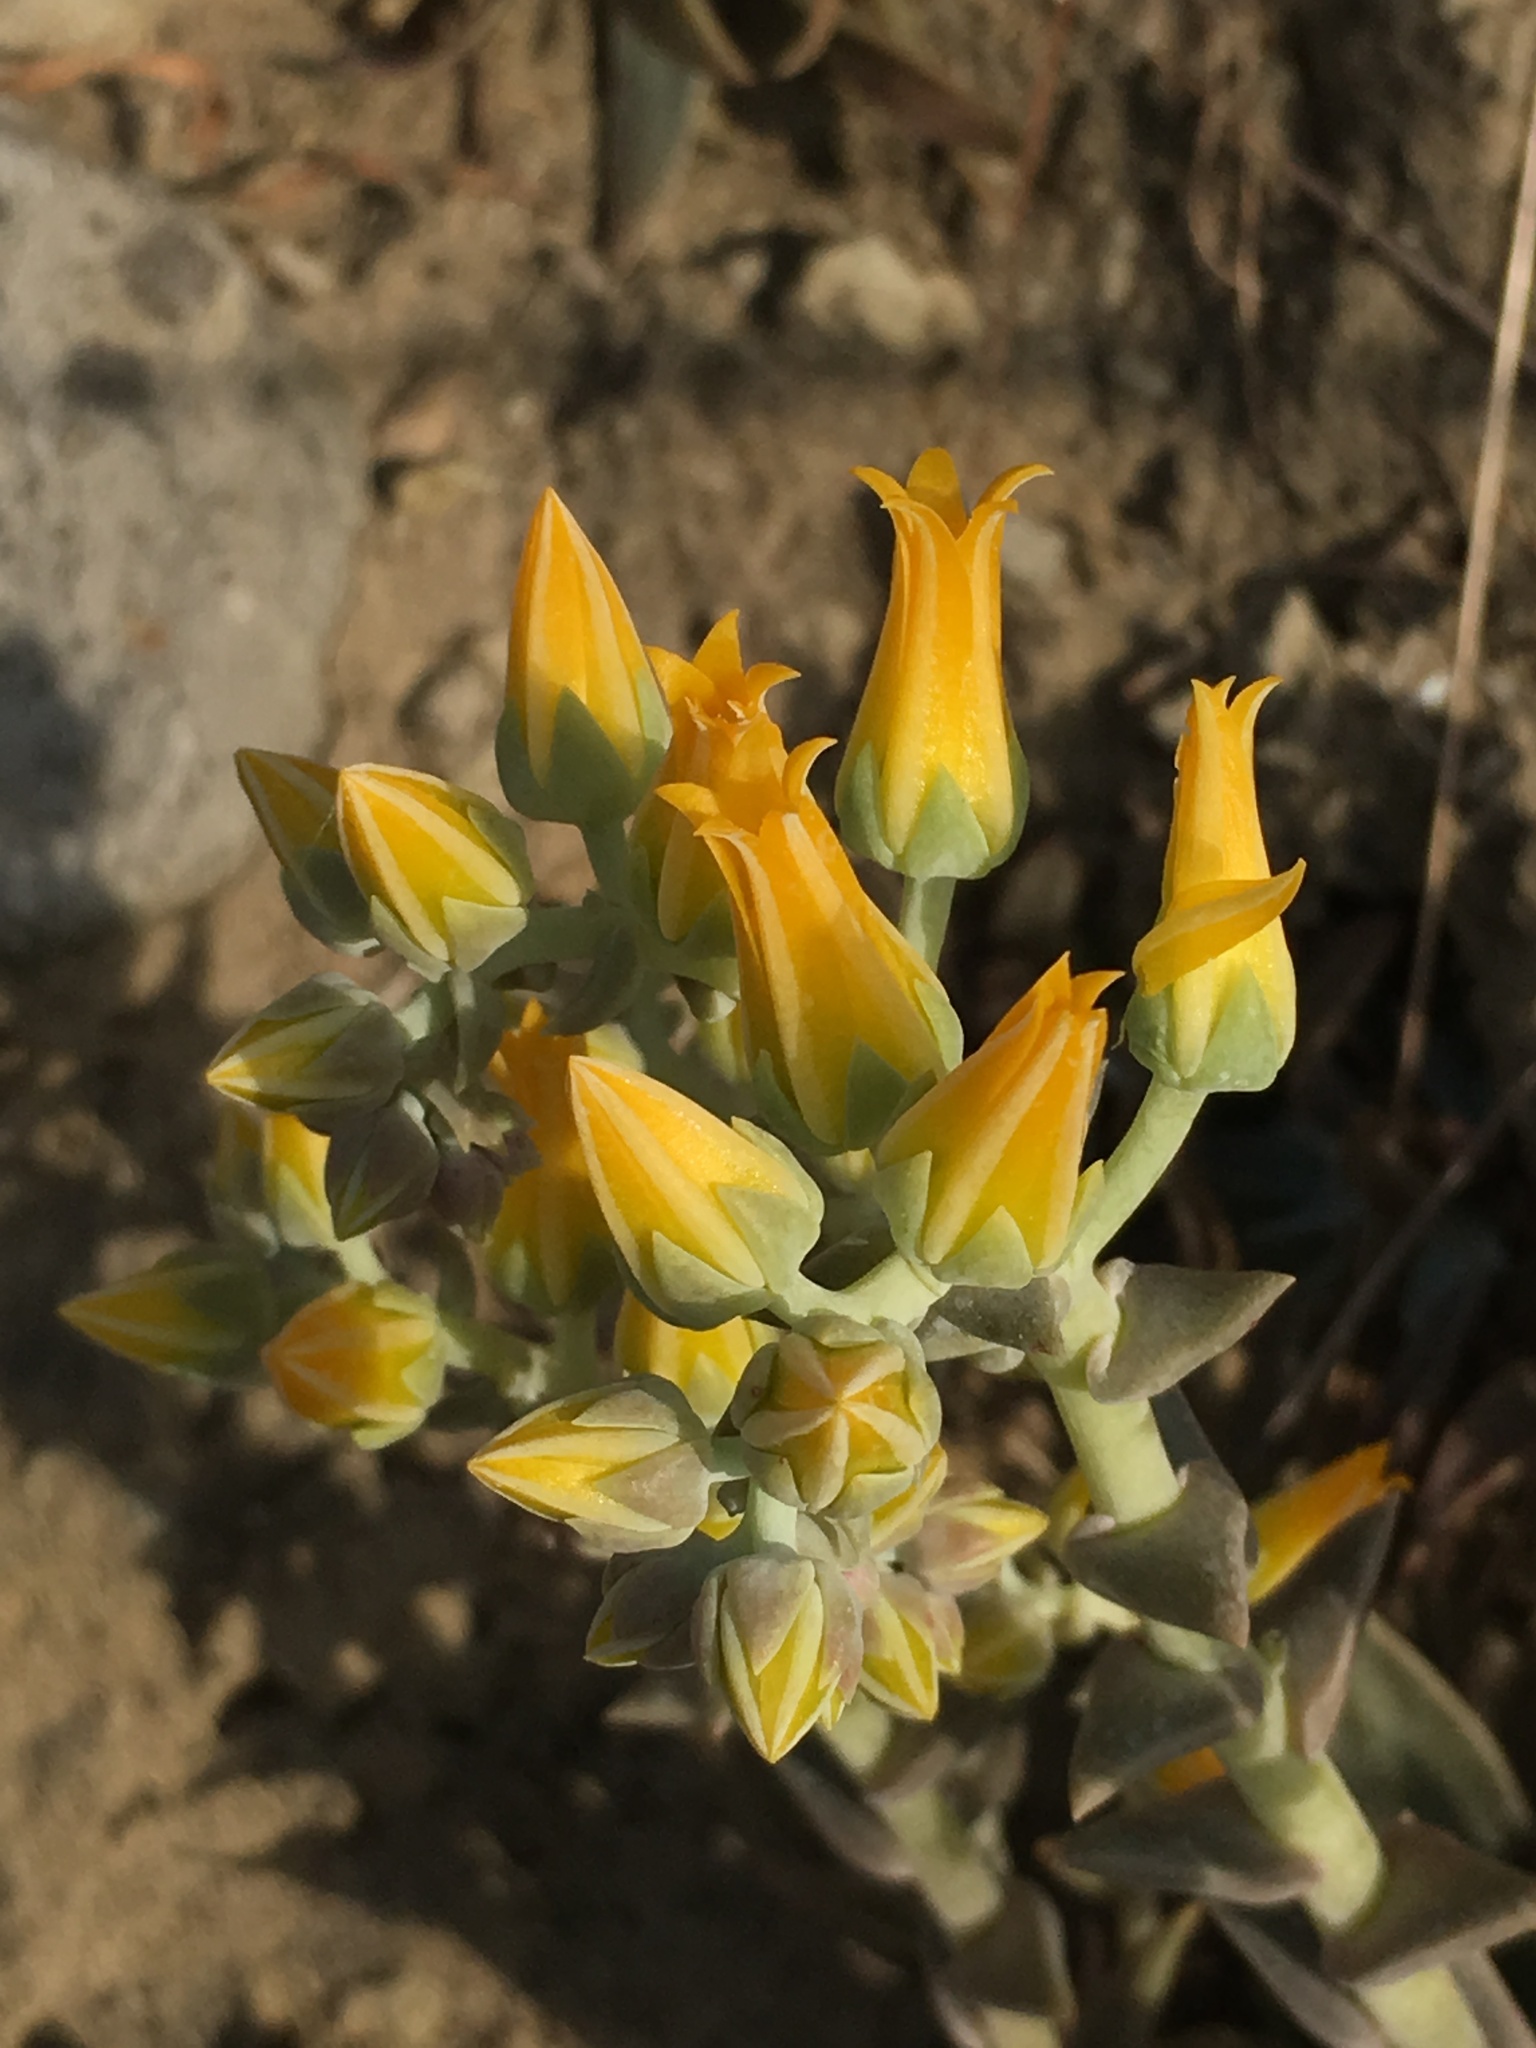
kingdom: Plantae
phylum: Tracheophyta
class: Magnoliopsida
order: Saxifragales
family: Crassulaceae
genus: Dudleya
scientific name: Dudleya cymosa
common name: Canyon dudleya
